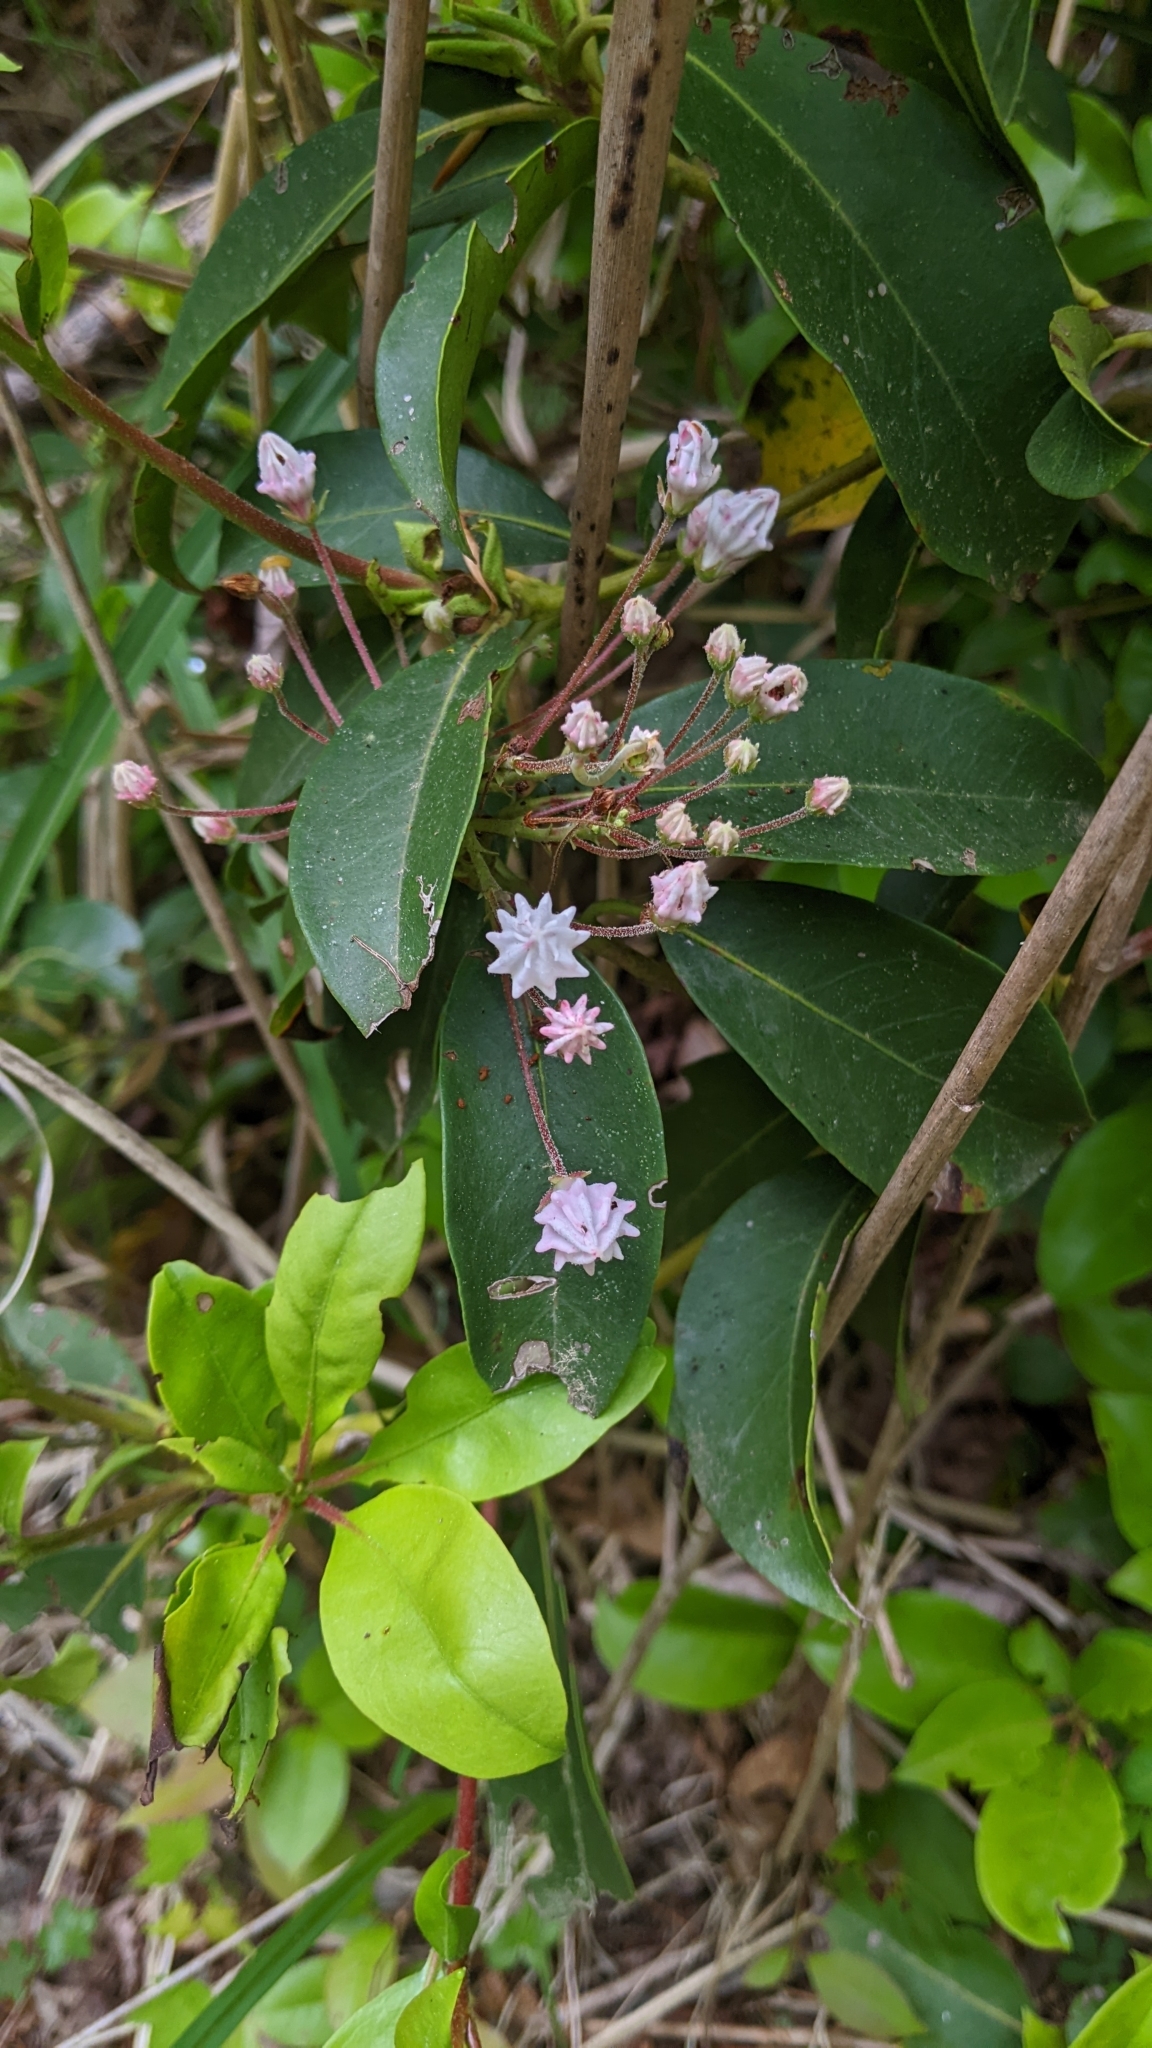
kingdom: Plantae
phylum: Tracheophyta
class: Magnoliopsida
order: Ericales
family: Ericaceae
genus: Kalmia
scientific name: Kalmia latifolia
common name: Mountain-laurel
